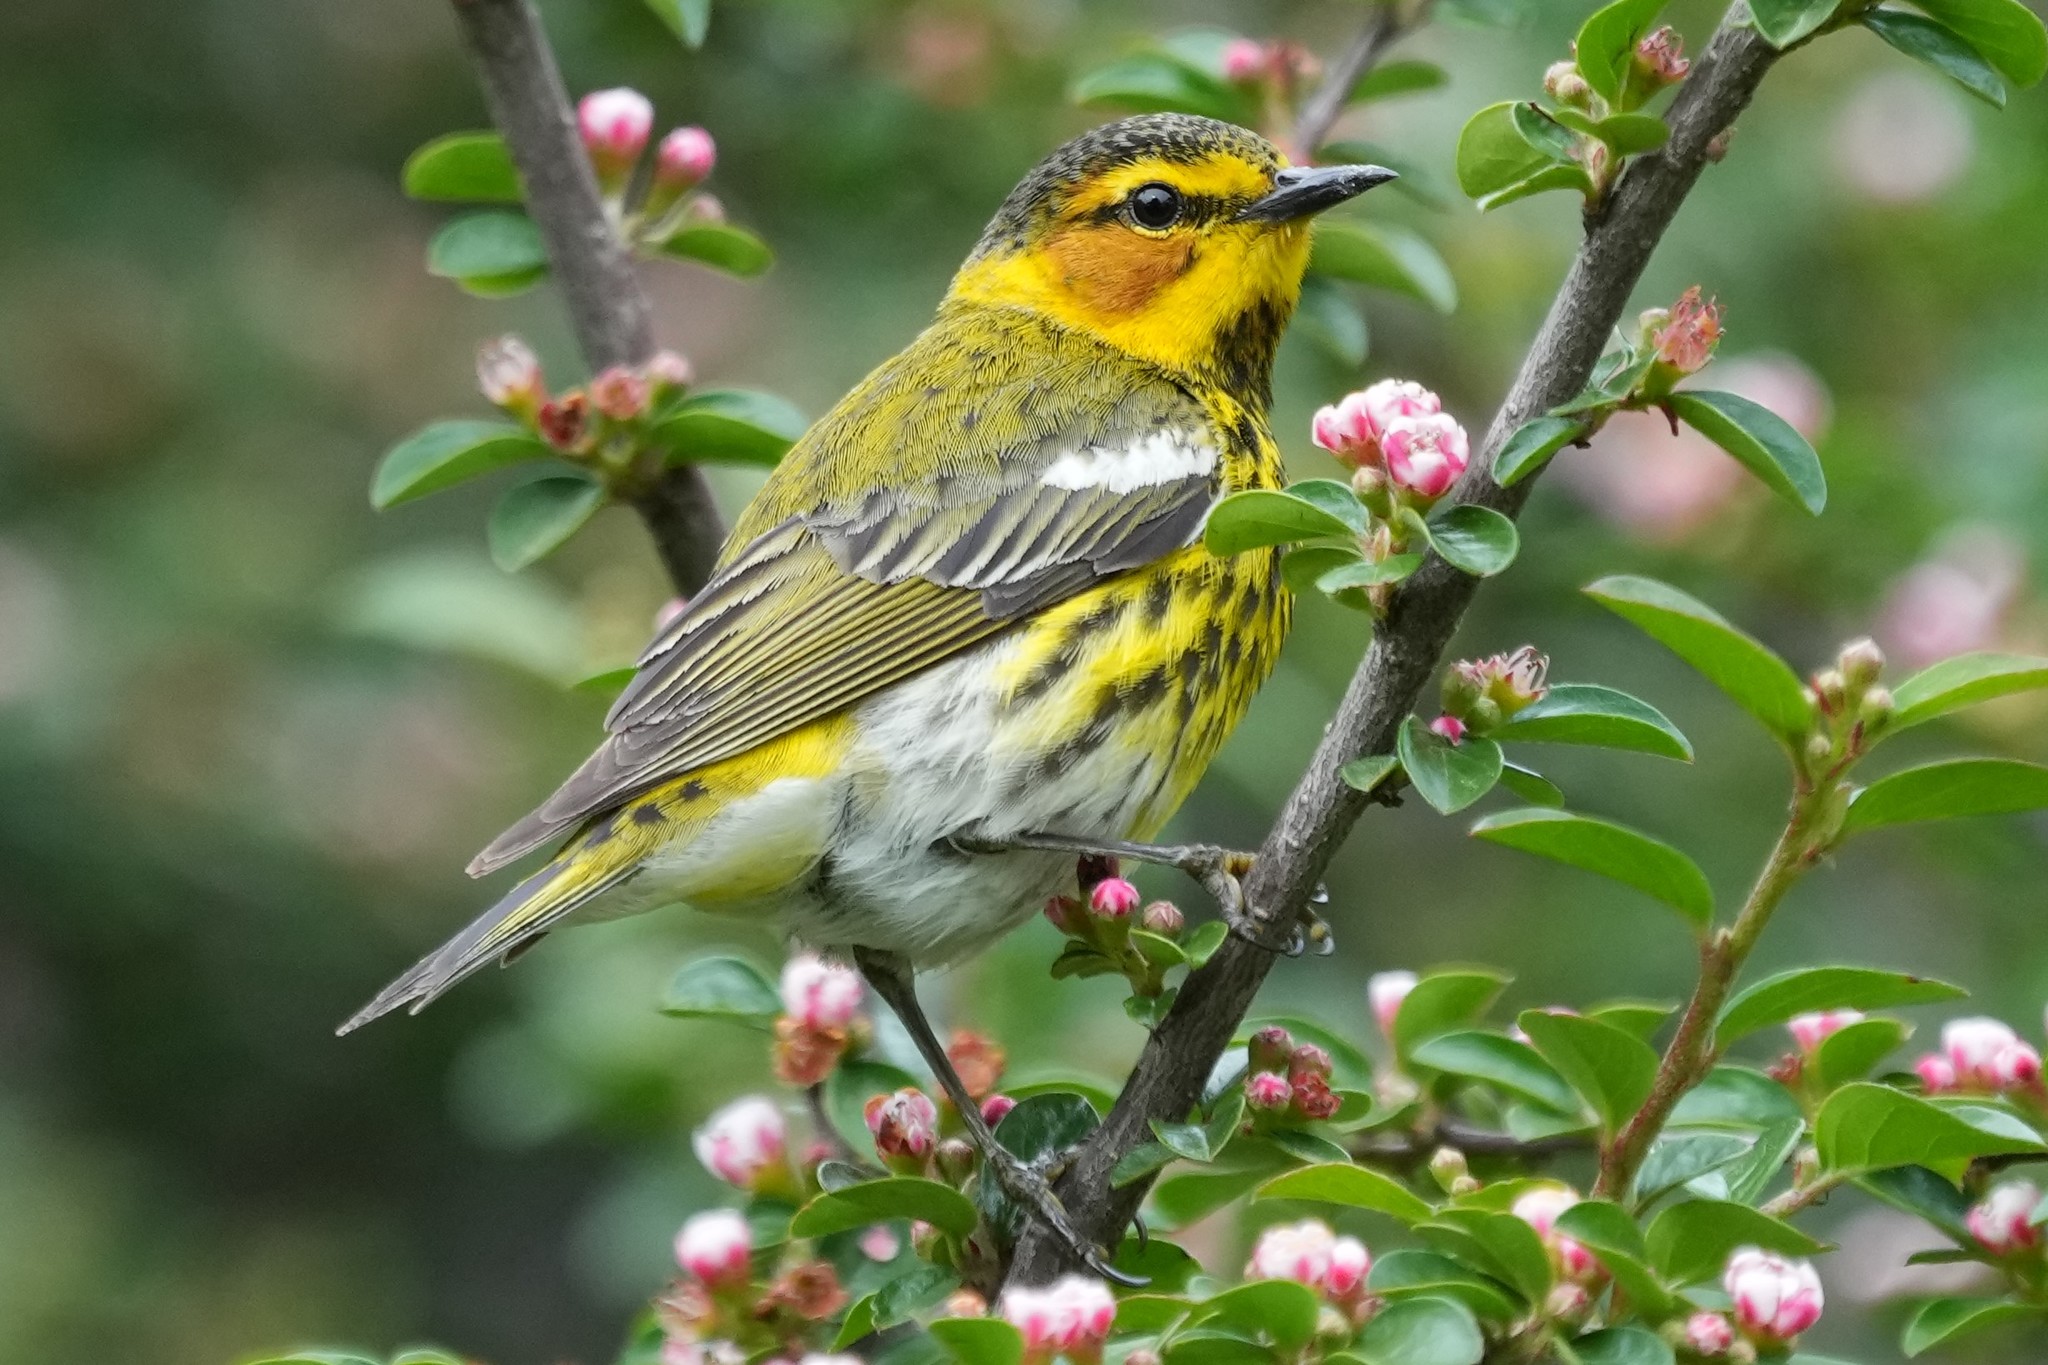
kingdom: Animalia
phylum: Chordata
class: Aves
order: Passeriformes
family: Parulidae
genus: Setophaga
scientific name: Setophaga tigrina
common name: Cape may warbler
